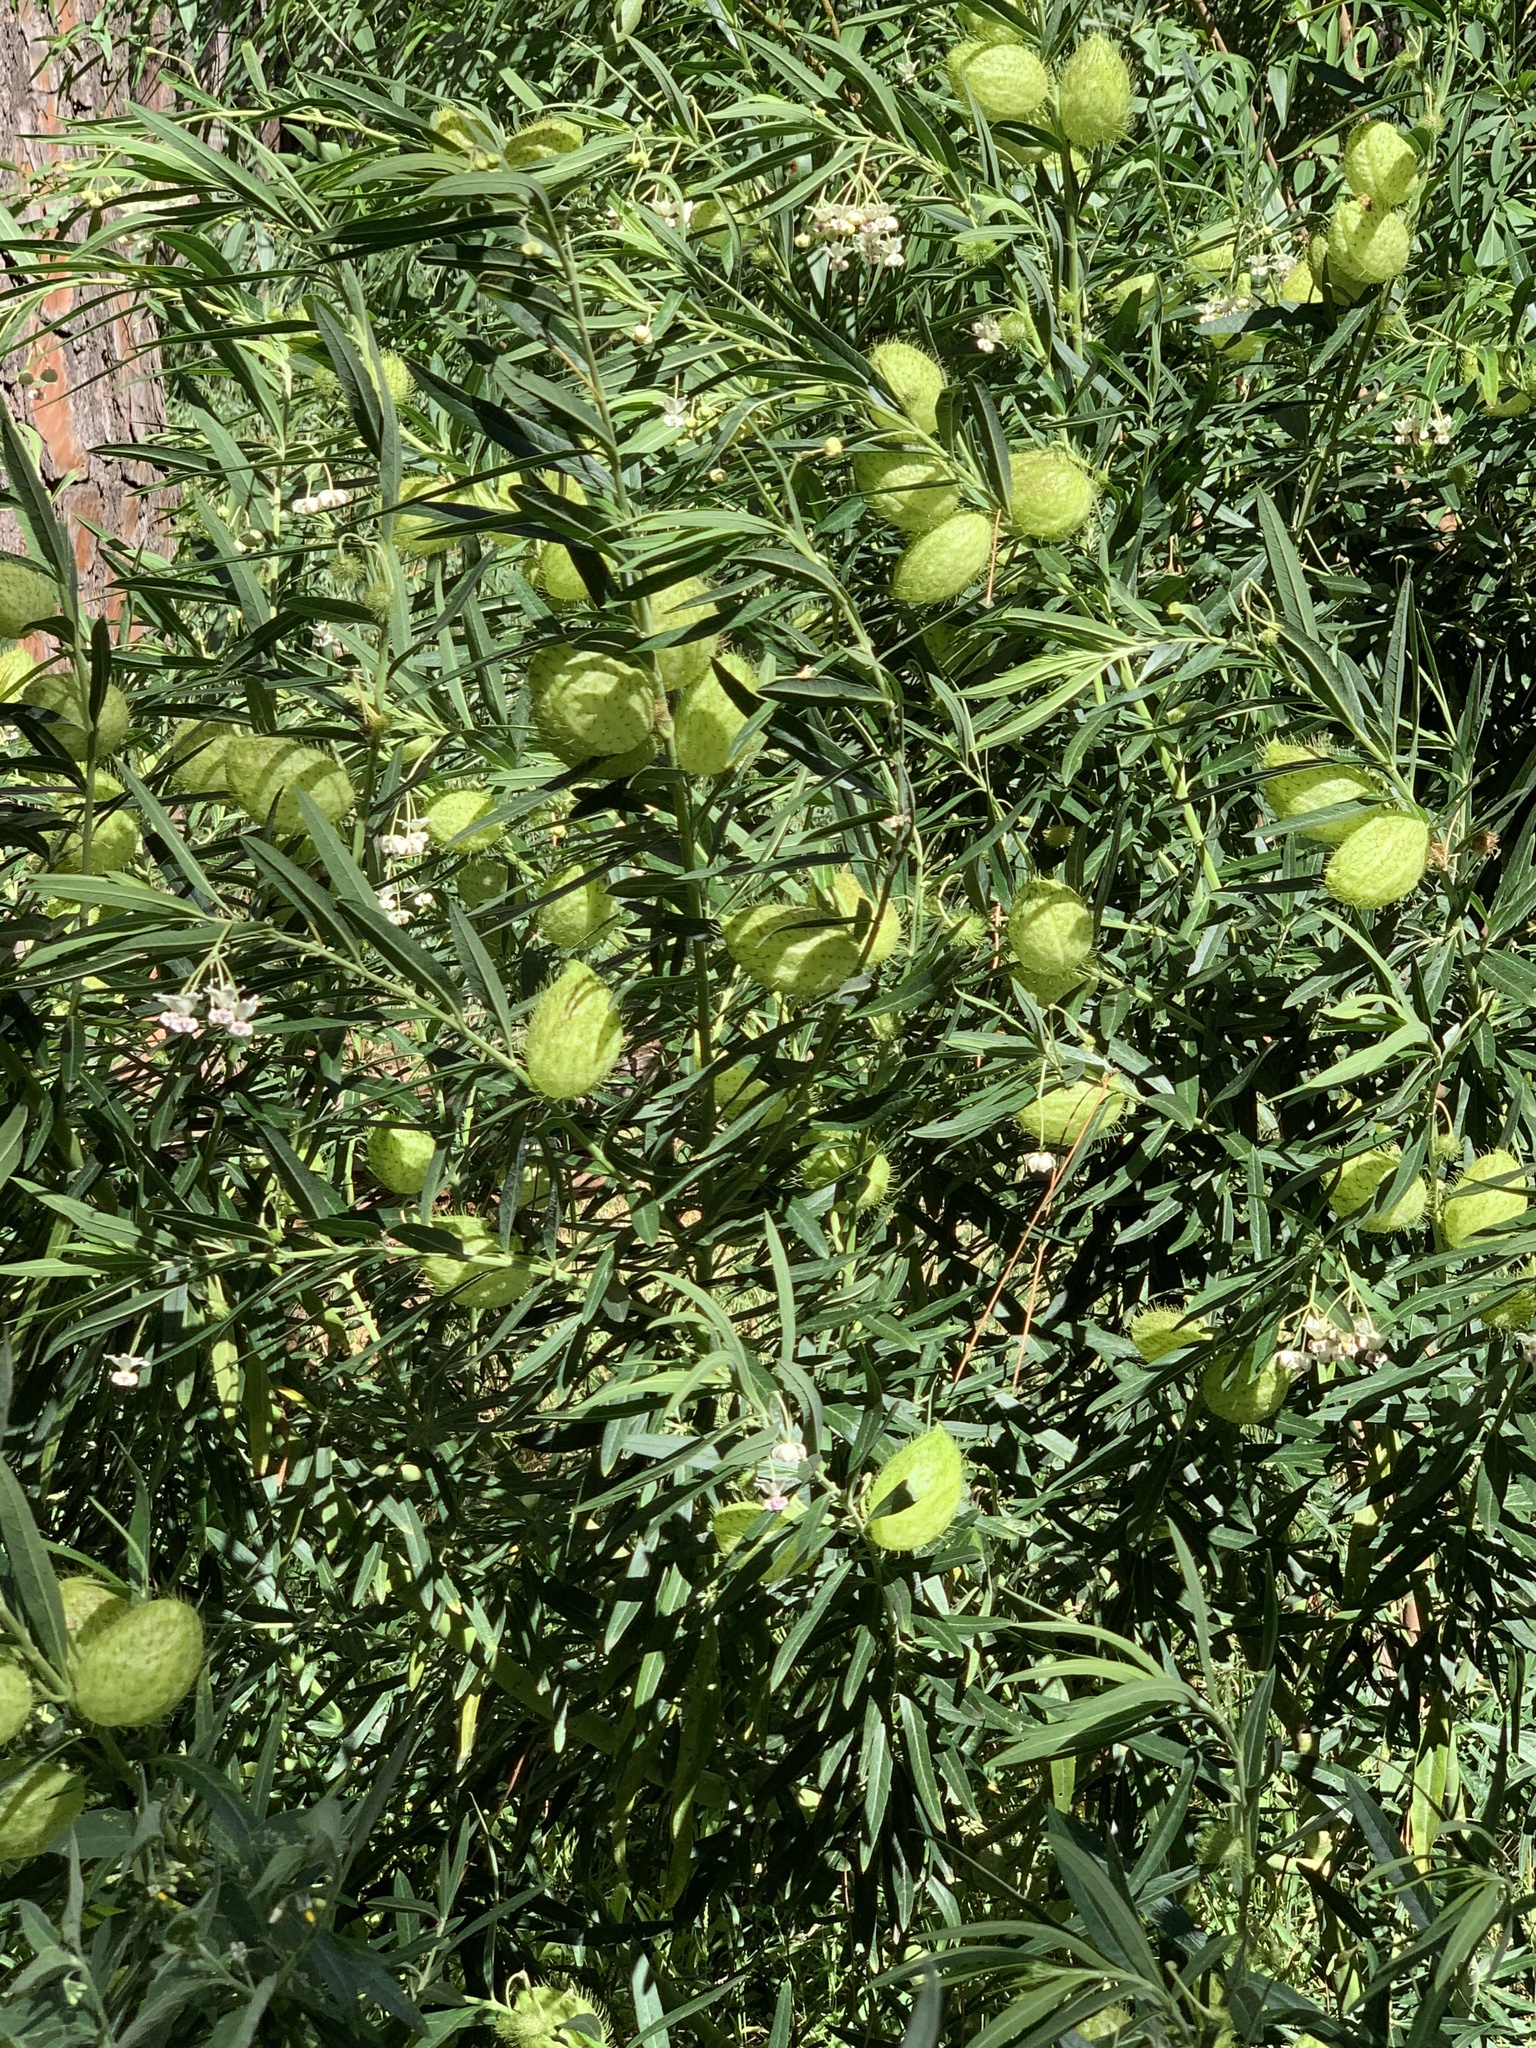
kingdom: Plantae
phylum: Tracheophyta
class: Magnoliopsida
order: Gentianales
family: Apocynaceae
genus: Gomphocarpus
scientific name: Gomphocarpus physocarpus
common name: Balloon cotton bush
